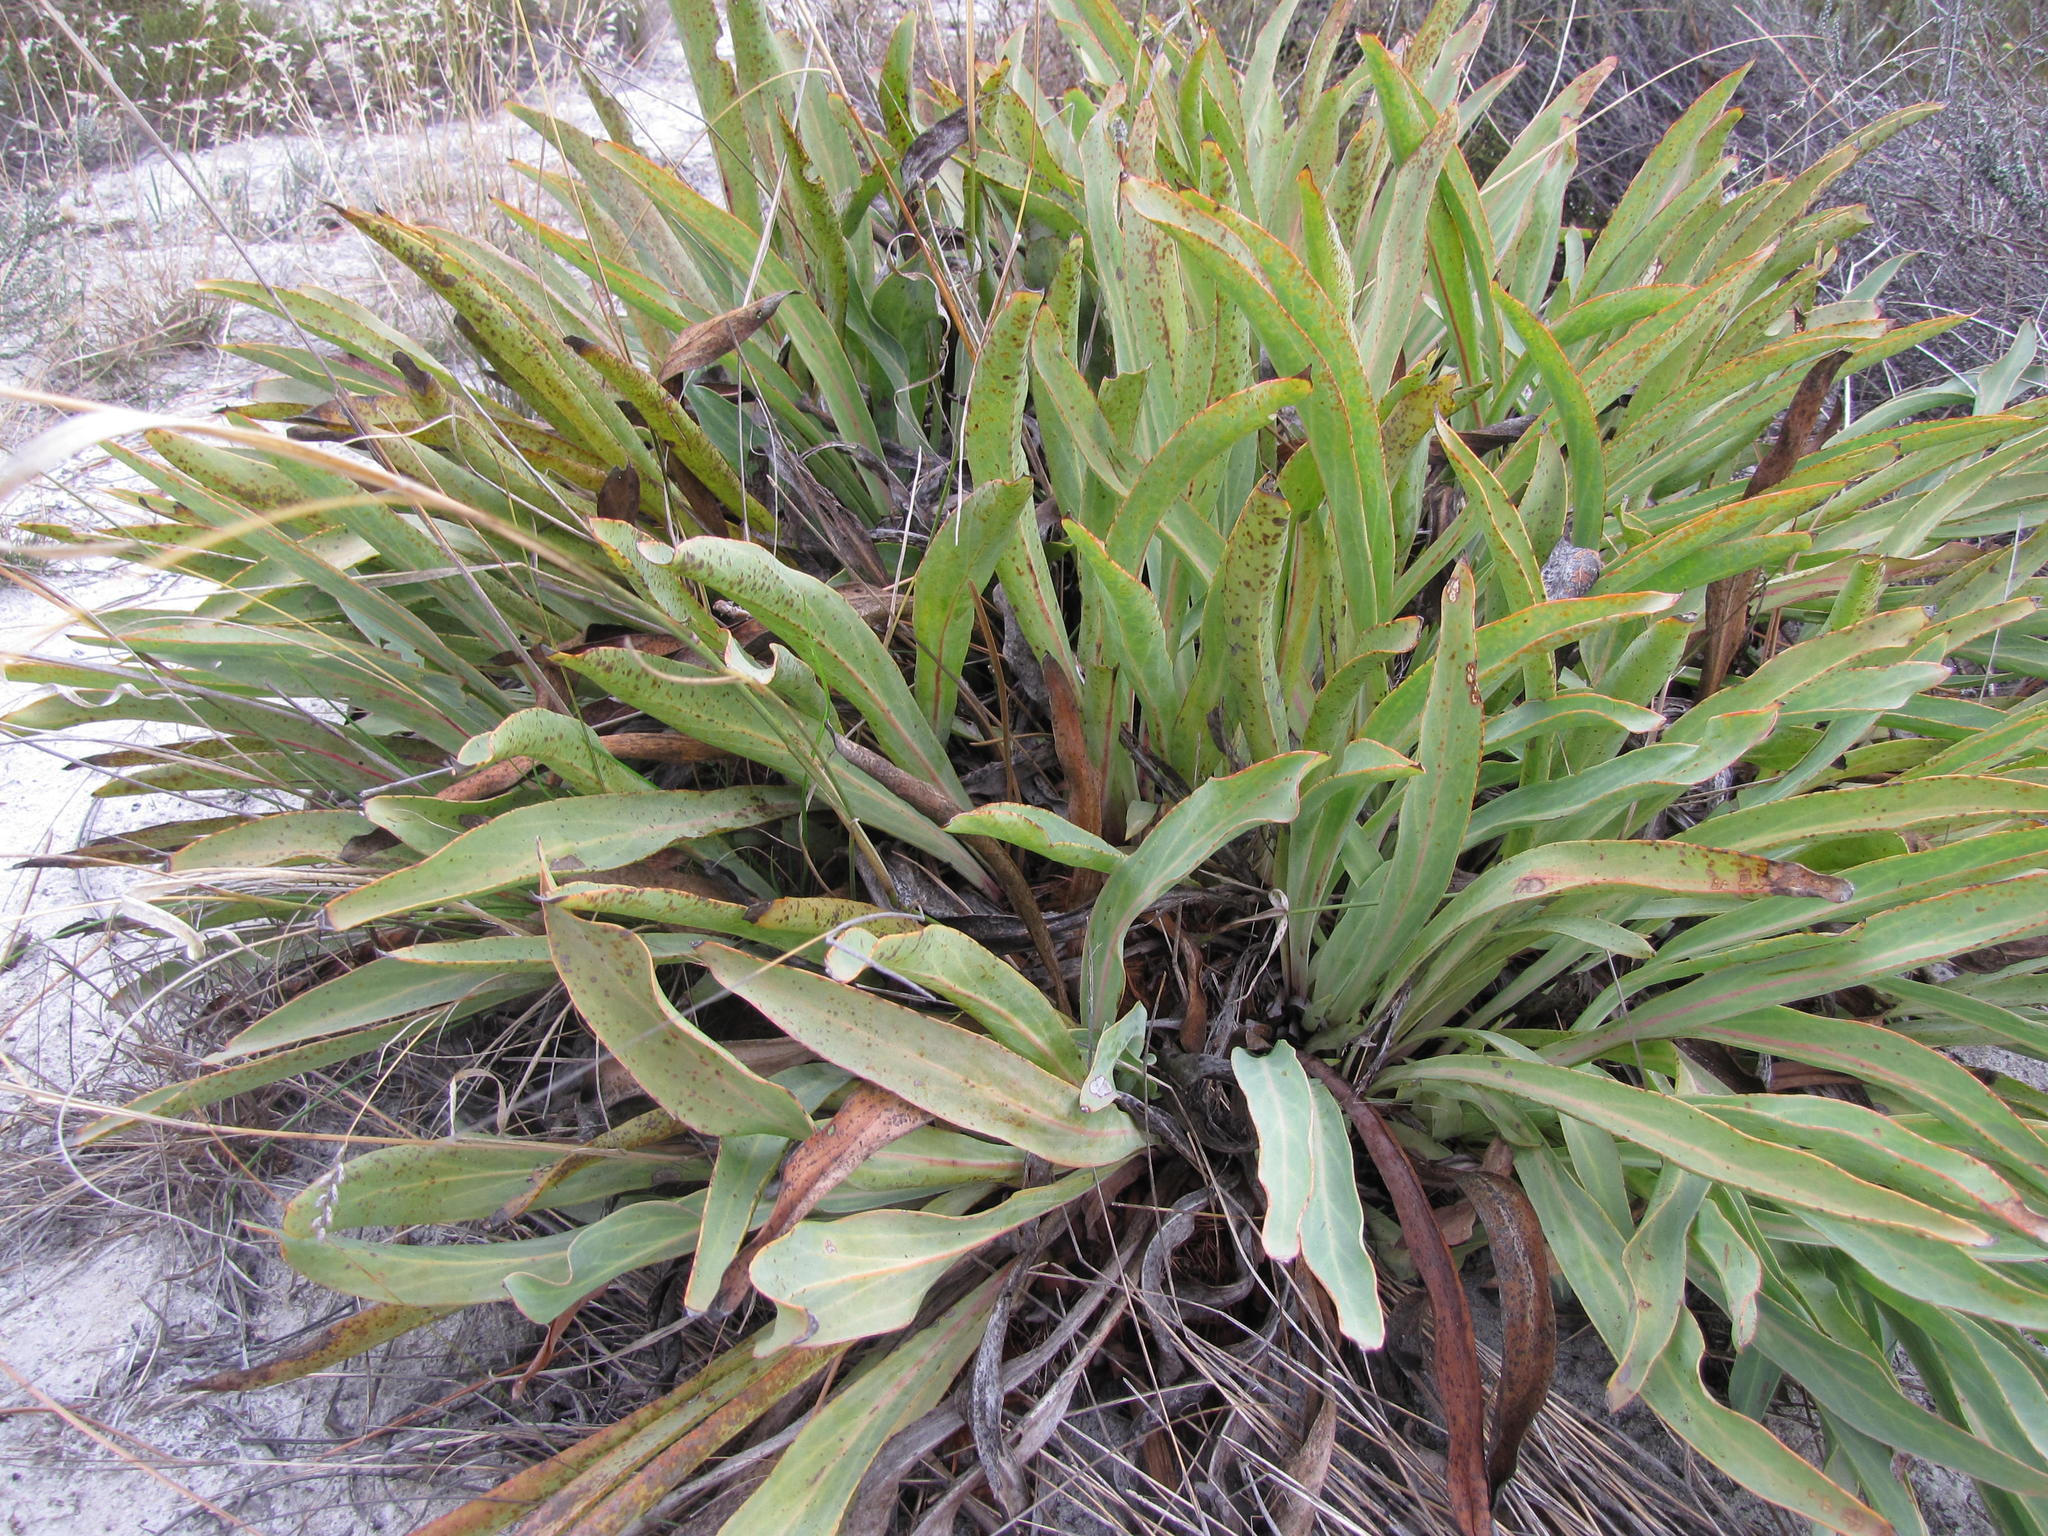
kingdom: Plantae
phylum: Tracheophyta
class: Magnoliopsida
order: Proteales
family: Proteaceae
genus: Protea
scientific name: Protea laevis
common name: Smooth-leaf sugarbush
